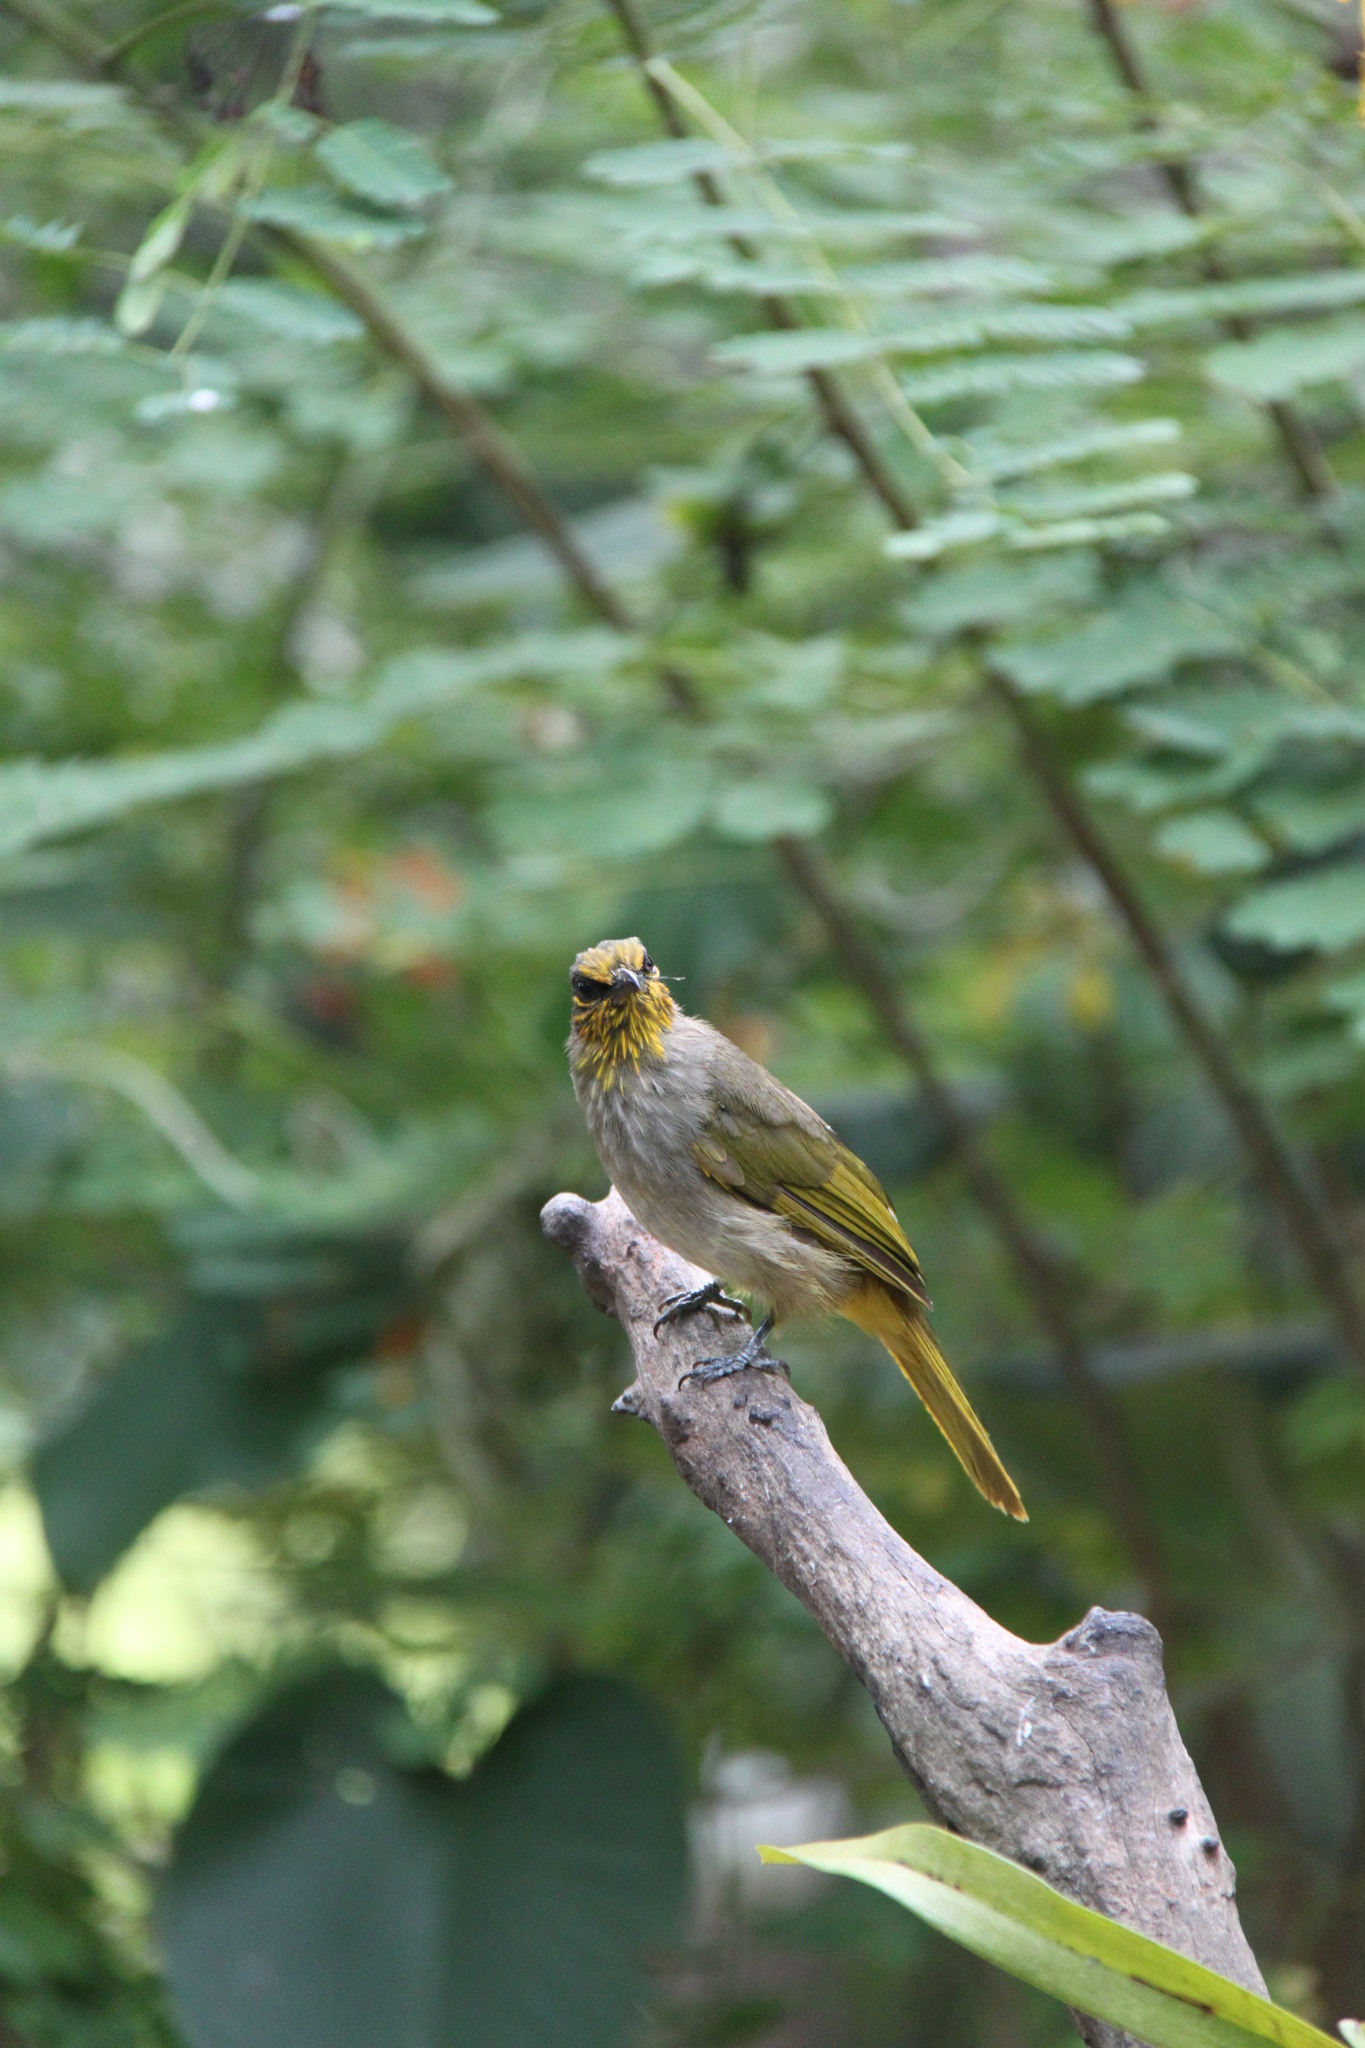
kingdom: Animalia
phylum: Chordata
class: Aves
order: Passeriformes
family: Pycnonotidae
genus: Pycnonotus
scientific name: Pycnonotus finlaysoni
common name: Stripe-throated bulbul
